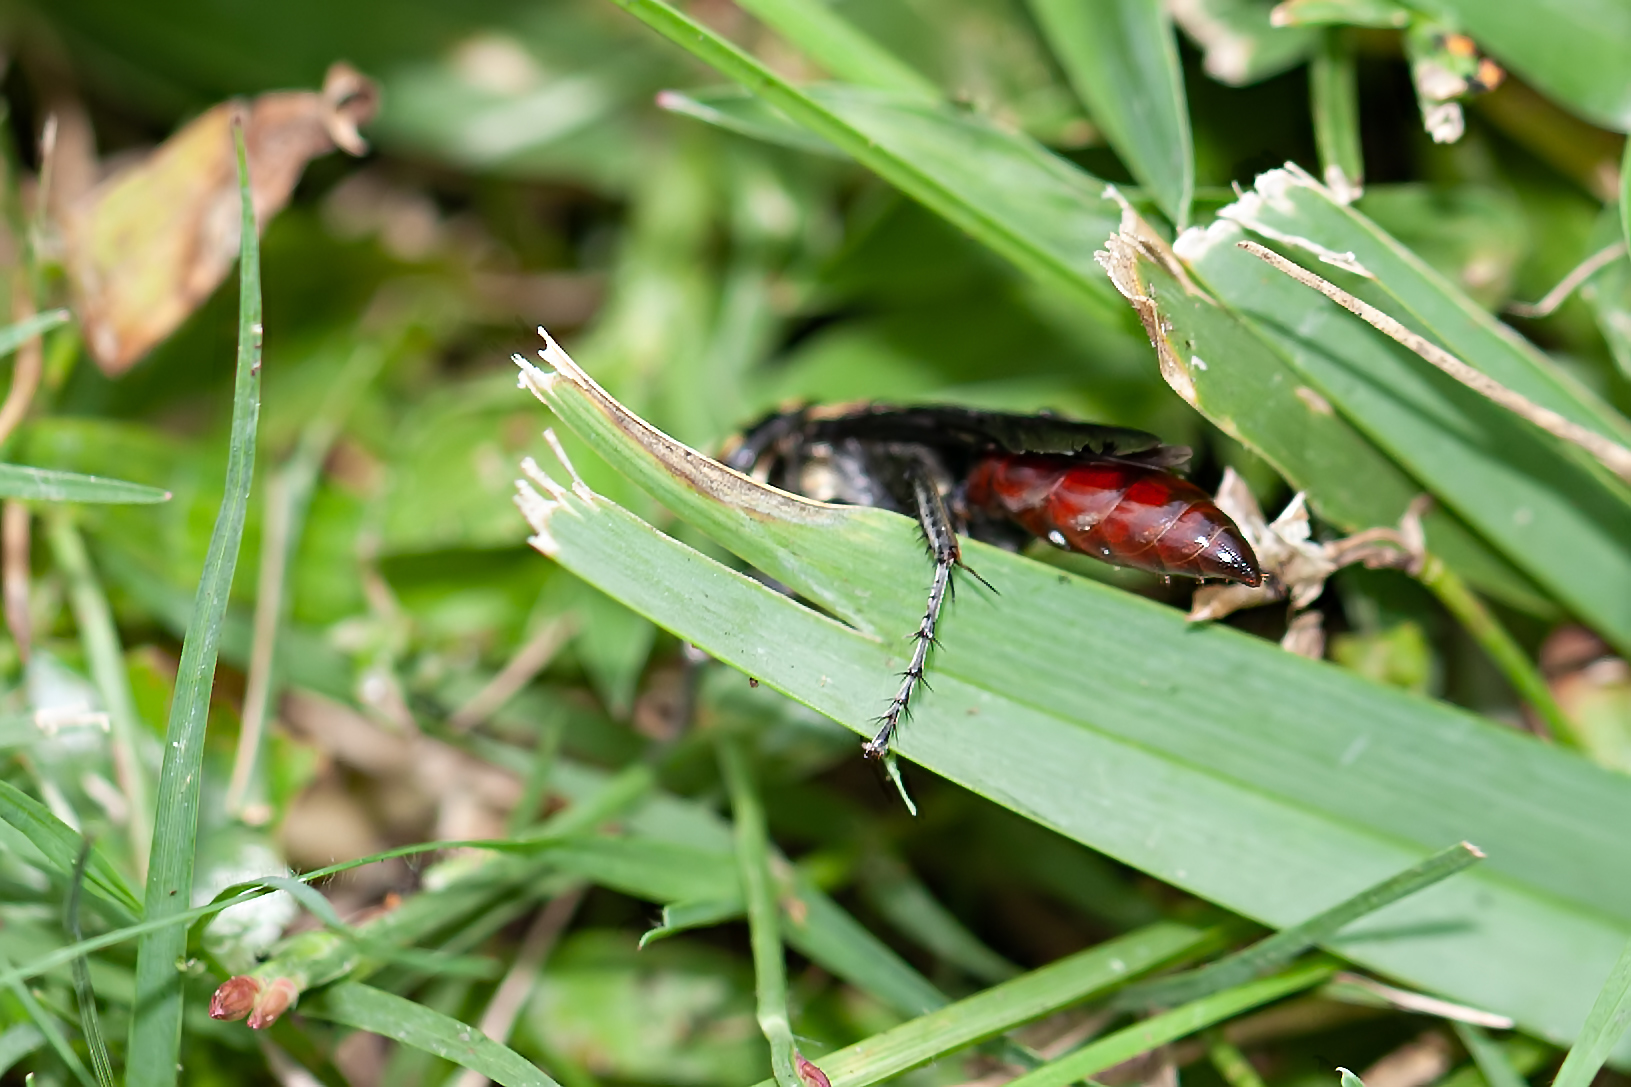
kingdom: Animalia
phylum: Arthropoda
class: Insecta
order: Hymenoptera
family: Crabronidae
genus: Larra
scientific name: Larra bicolor
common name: Wasp
